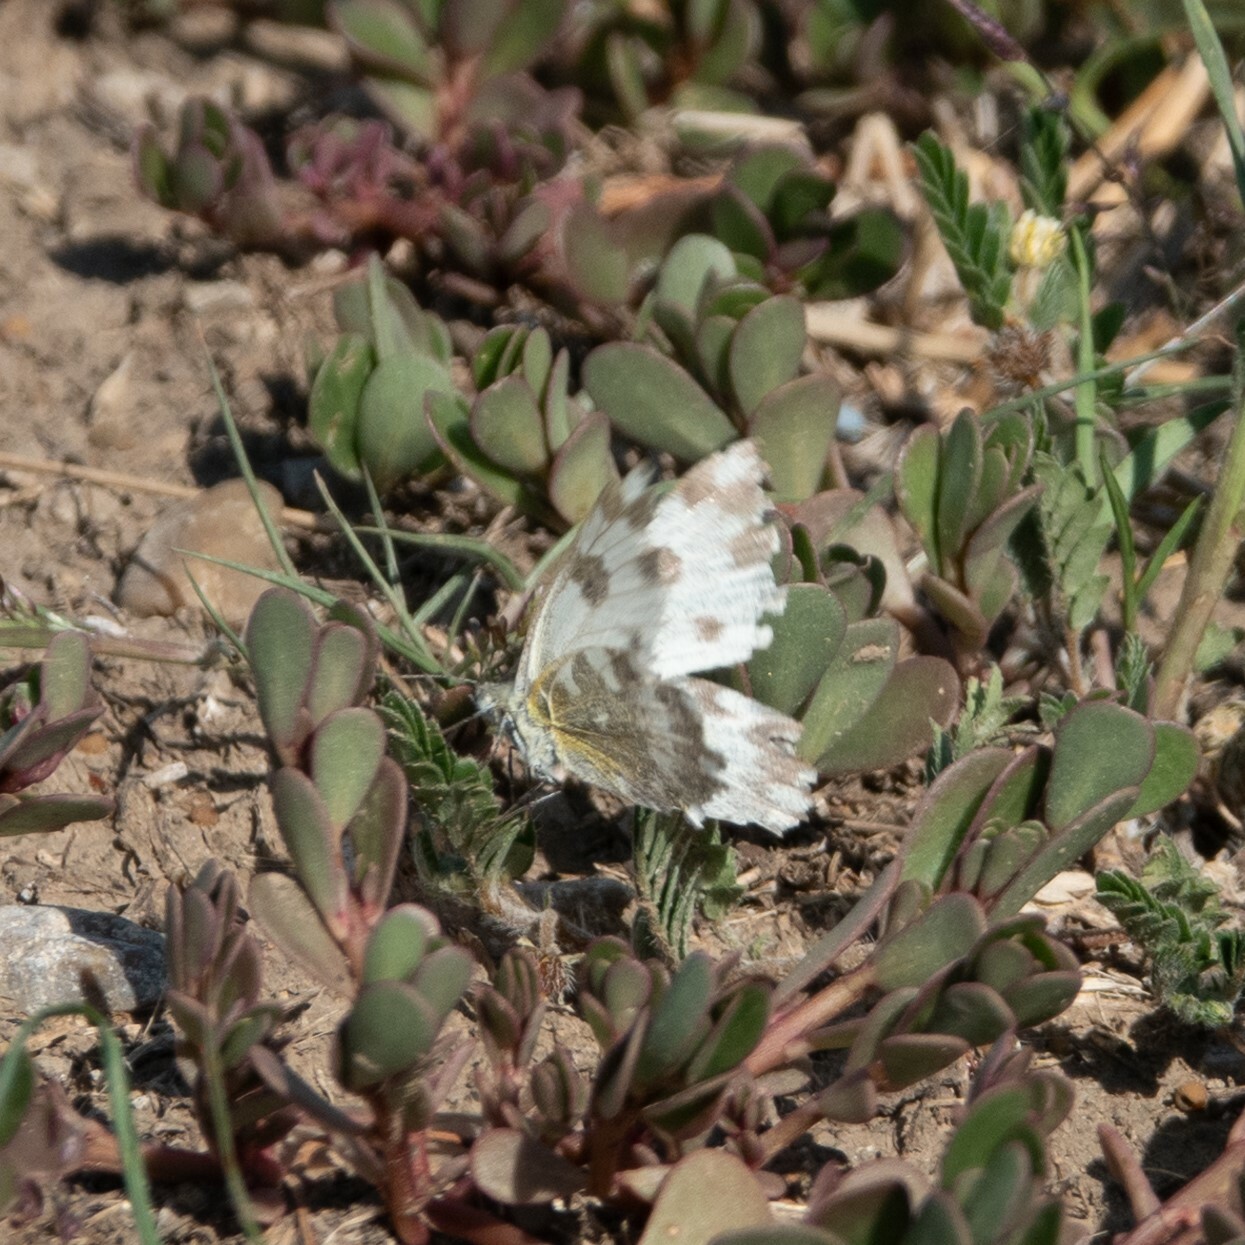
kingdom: Animalia
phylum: Arthropoda
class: Insecta
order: Lepidoptera
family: Pieridae
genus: Pontia
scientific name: Pontia edusa
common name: Eastern bath white
